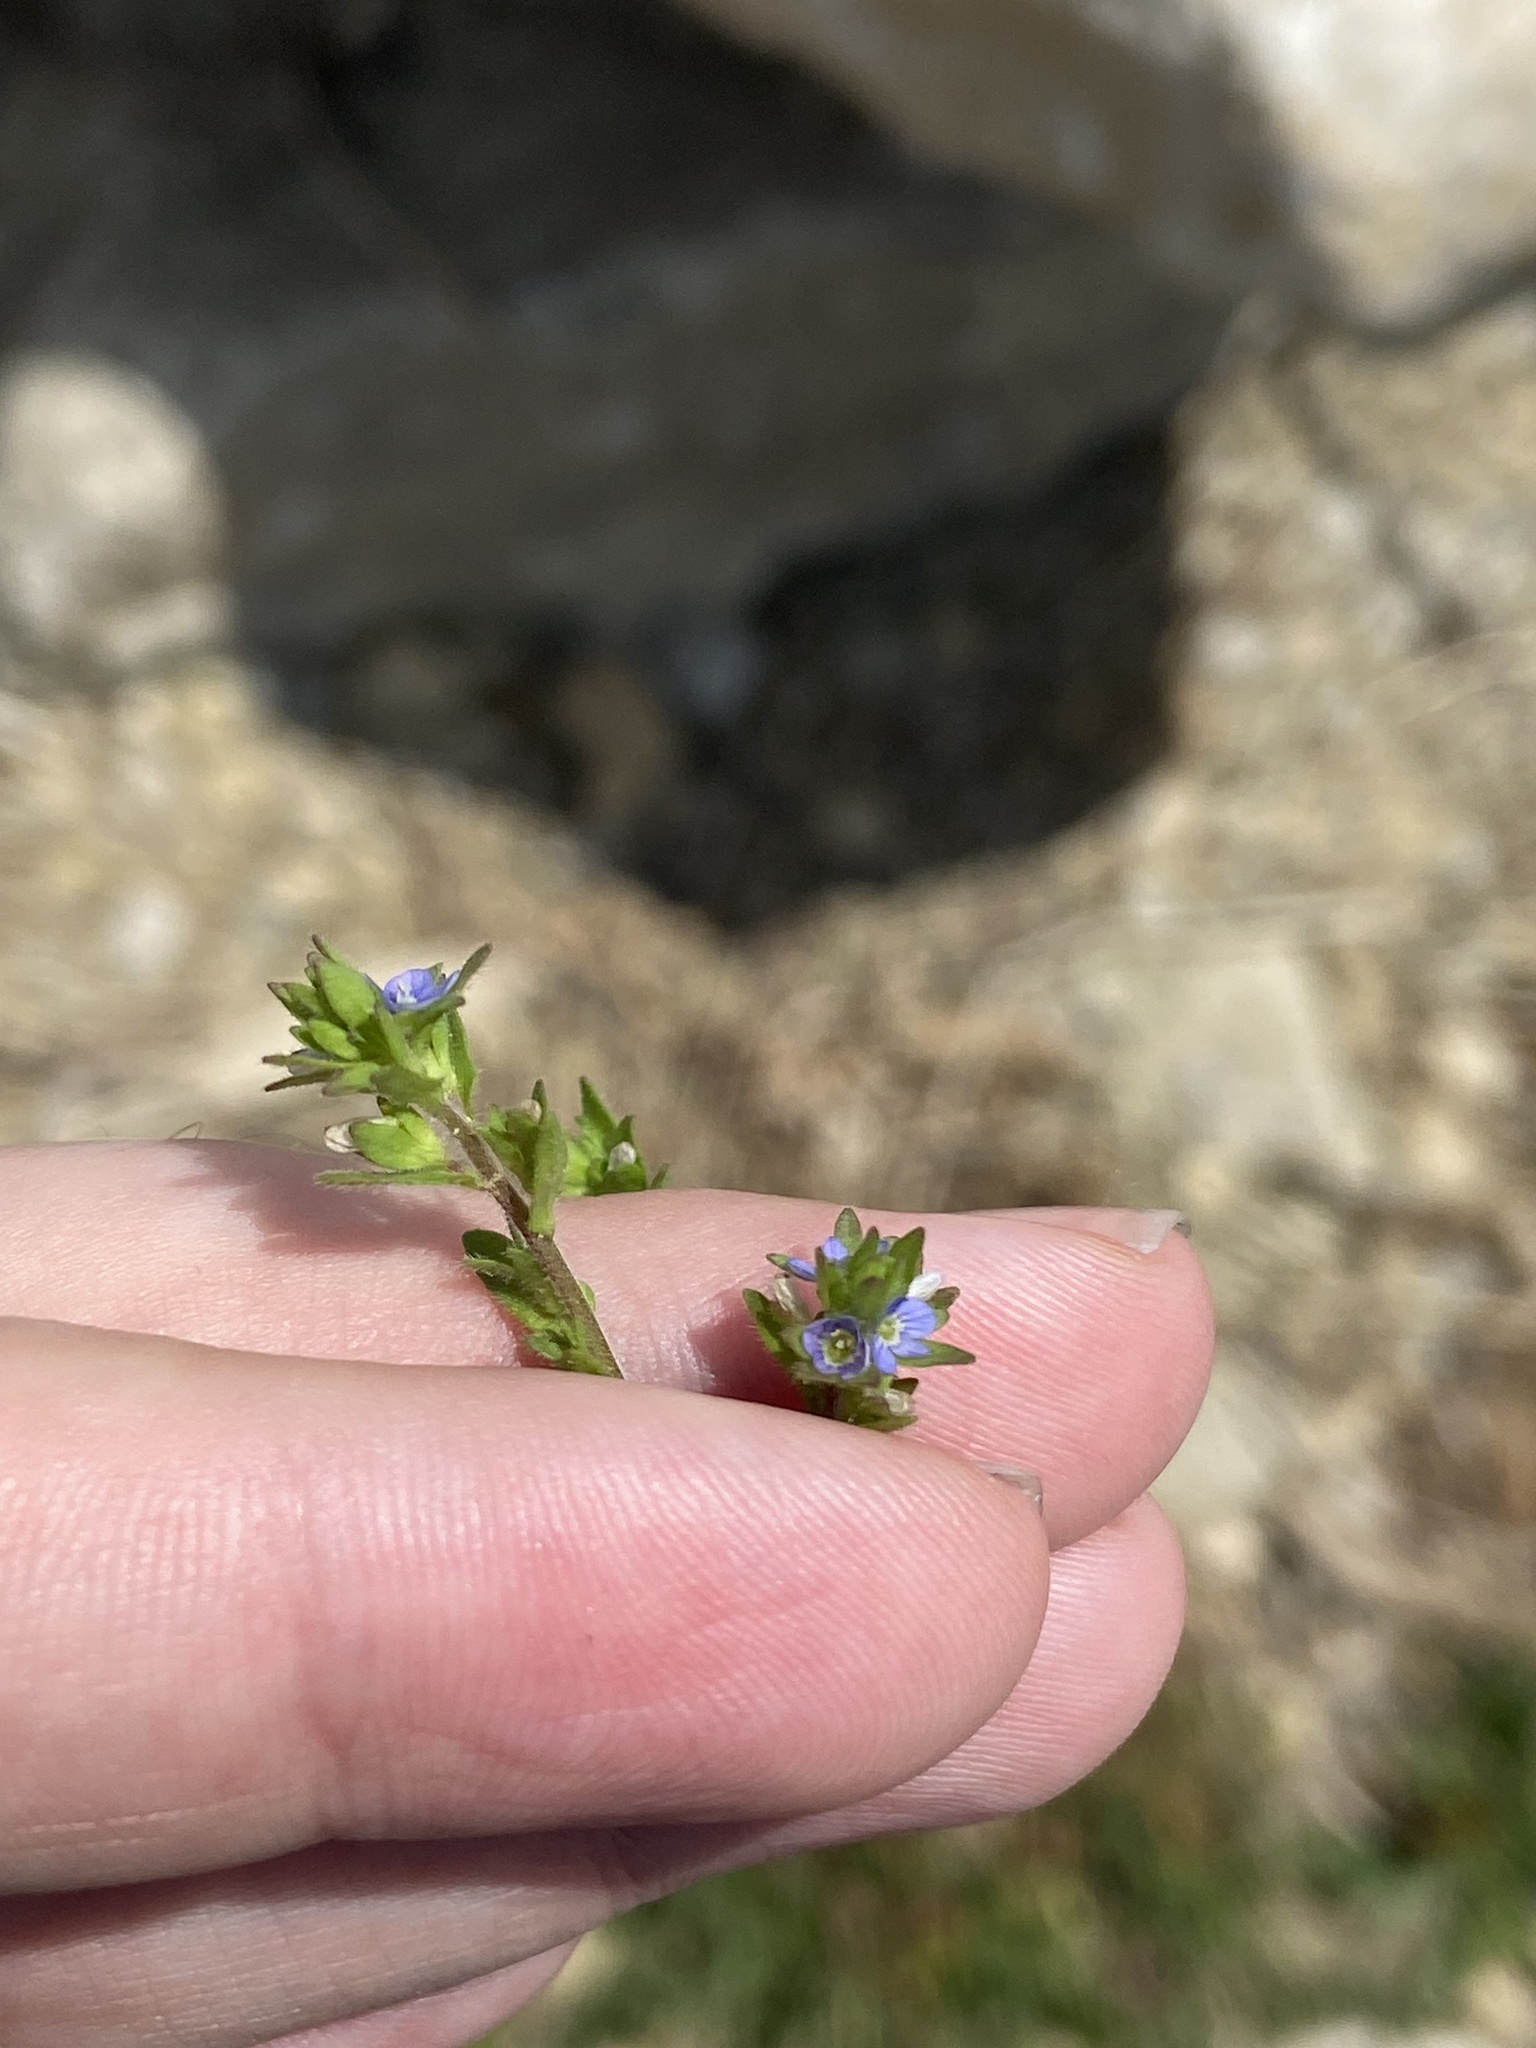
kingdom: Plantae
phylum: Tracheophyta
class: Magnoliopsida
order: Lamiales
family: Plantaginaceae
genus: Veronica
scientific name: Veronica arvensis
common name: Corn speedwell
